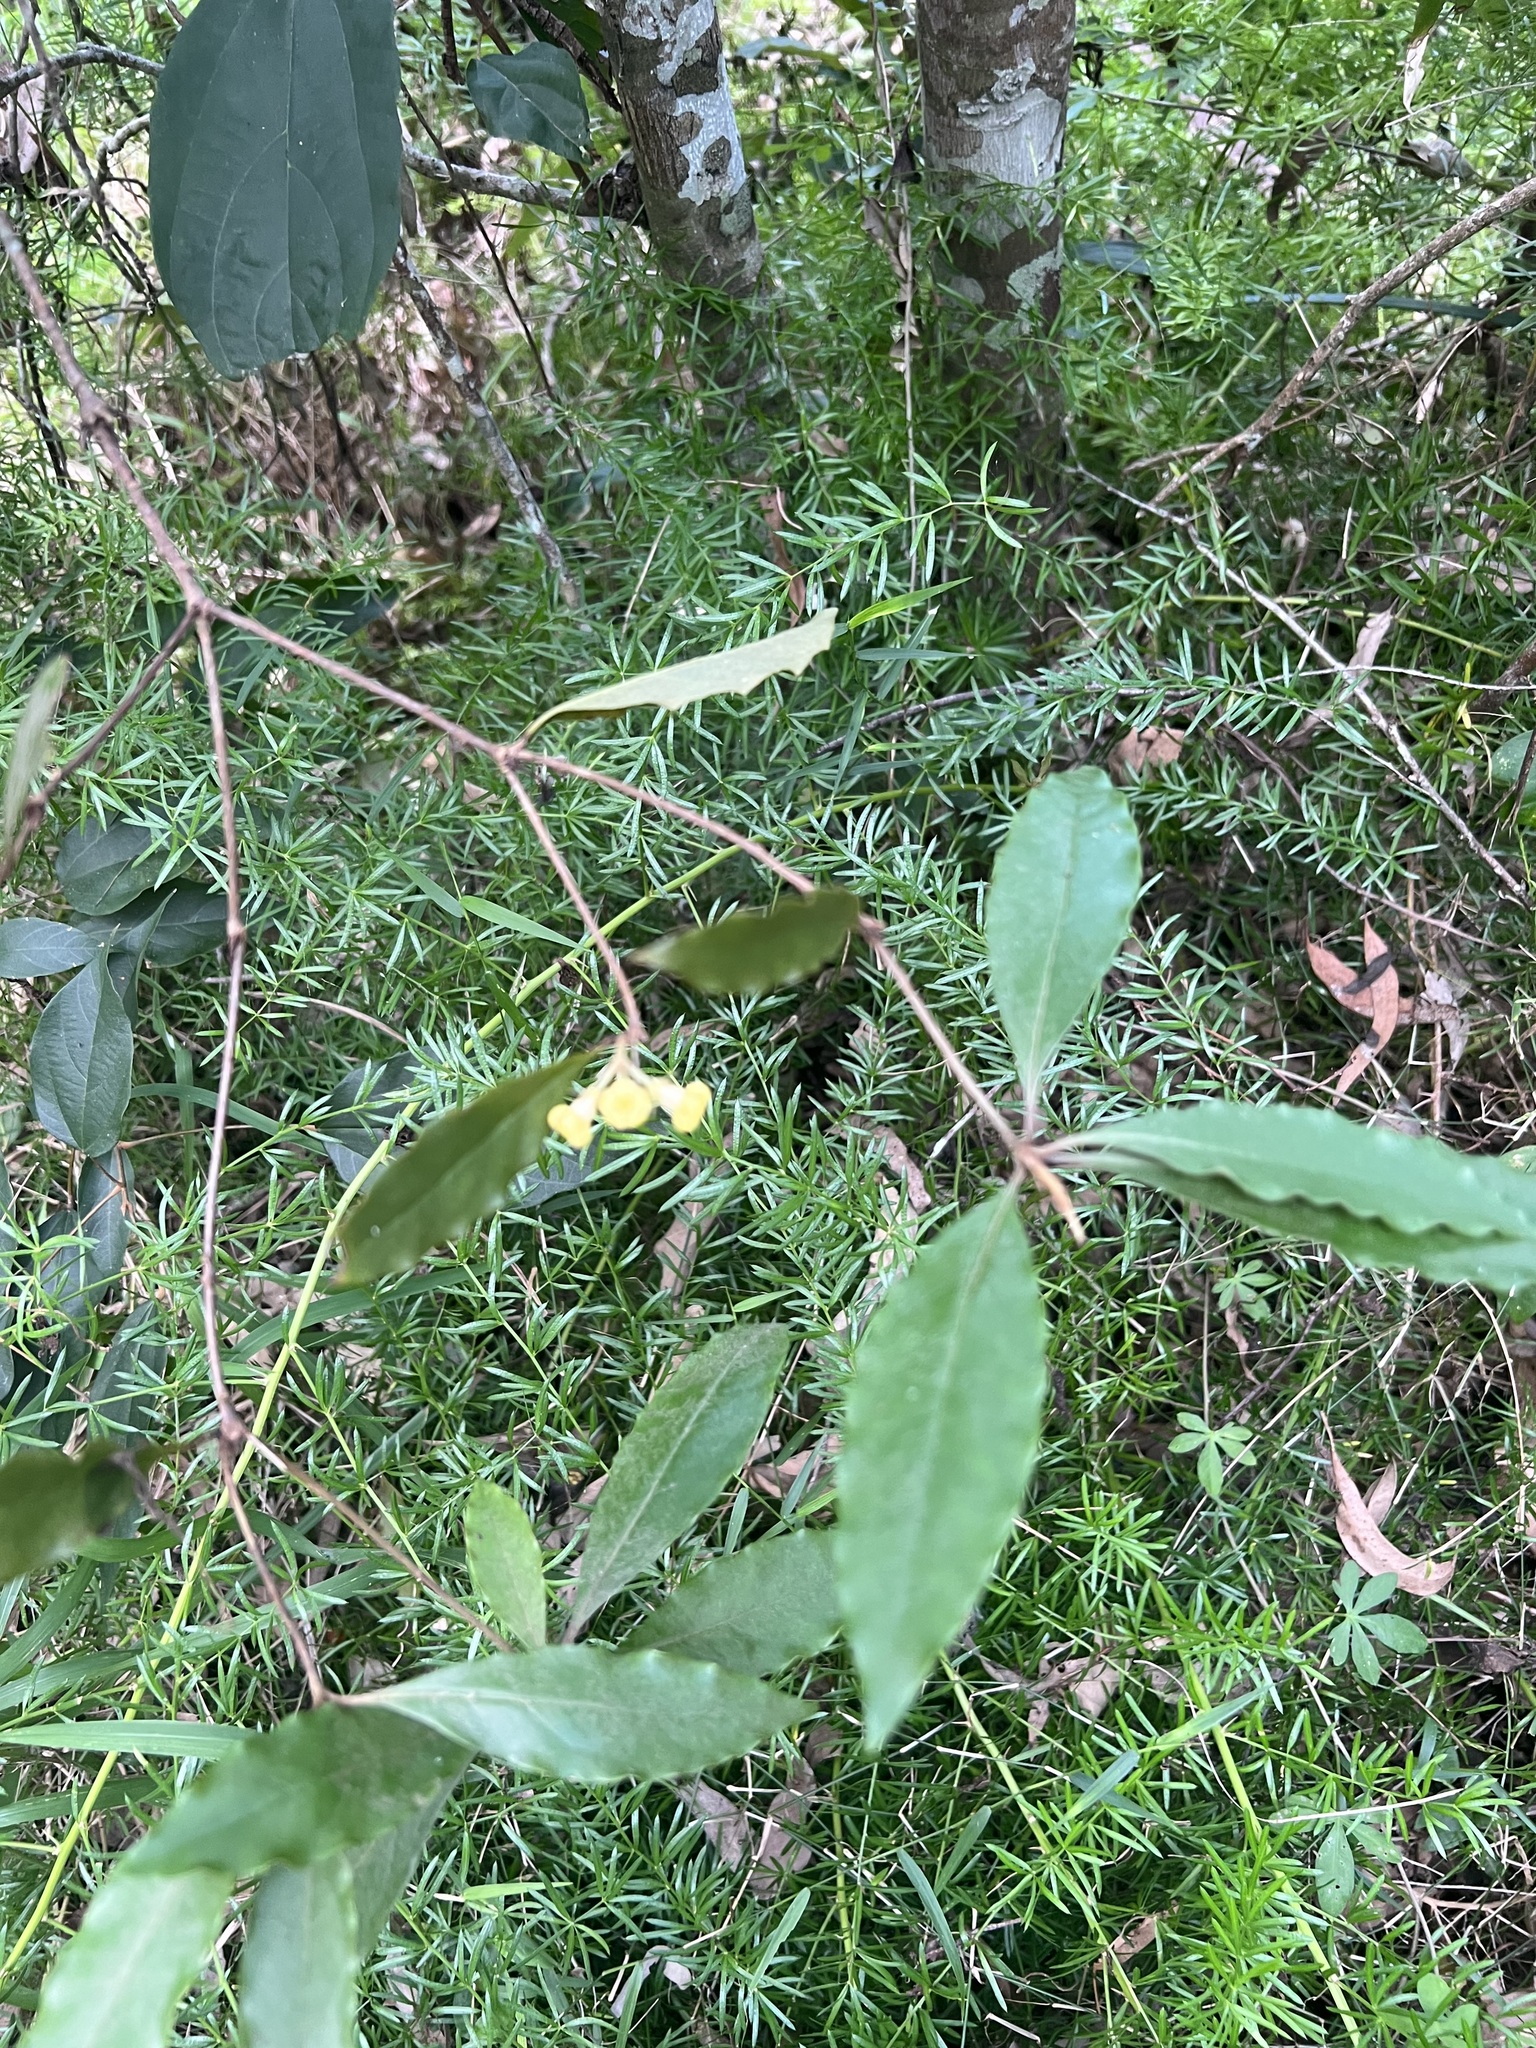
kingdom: Plantae
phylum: Tracheophyta
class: Magnoliopsida
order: Apiales
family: Pittosporaceae
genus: Pittosporum
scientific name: Pittosporum revolutum
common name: Brisbane-laurel
